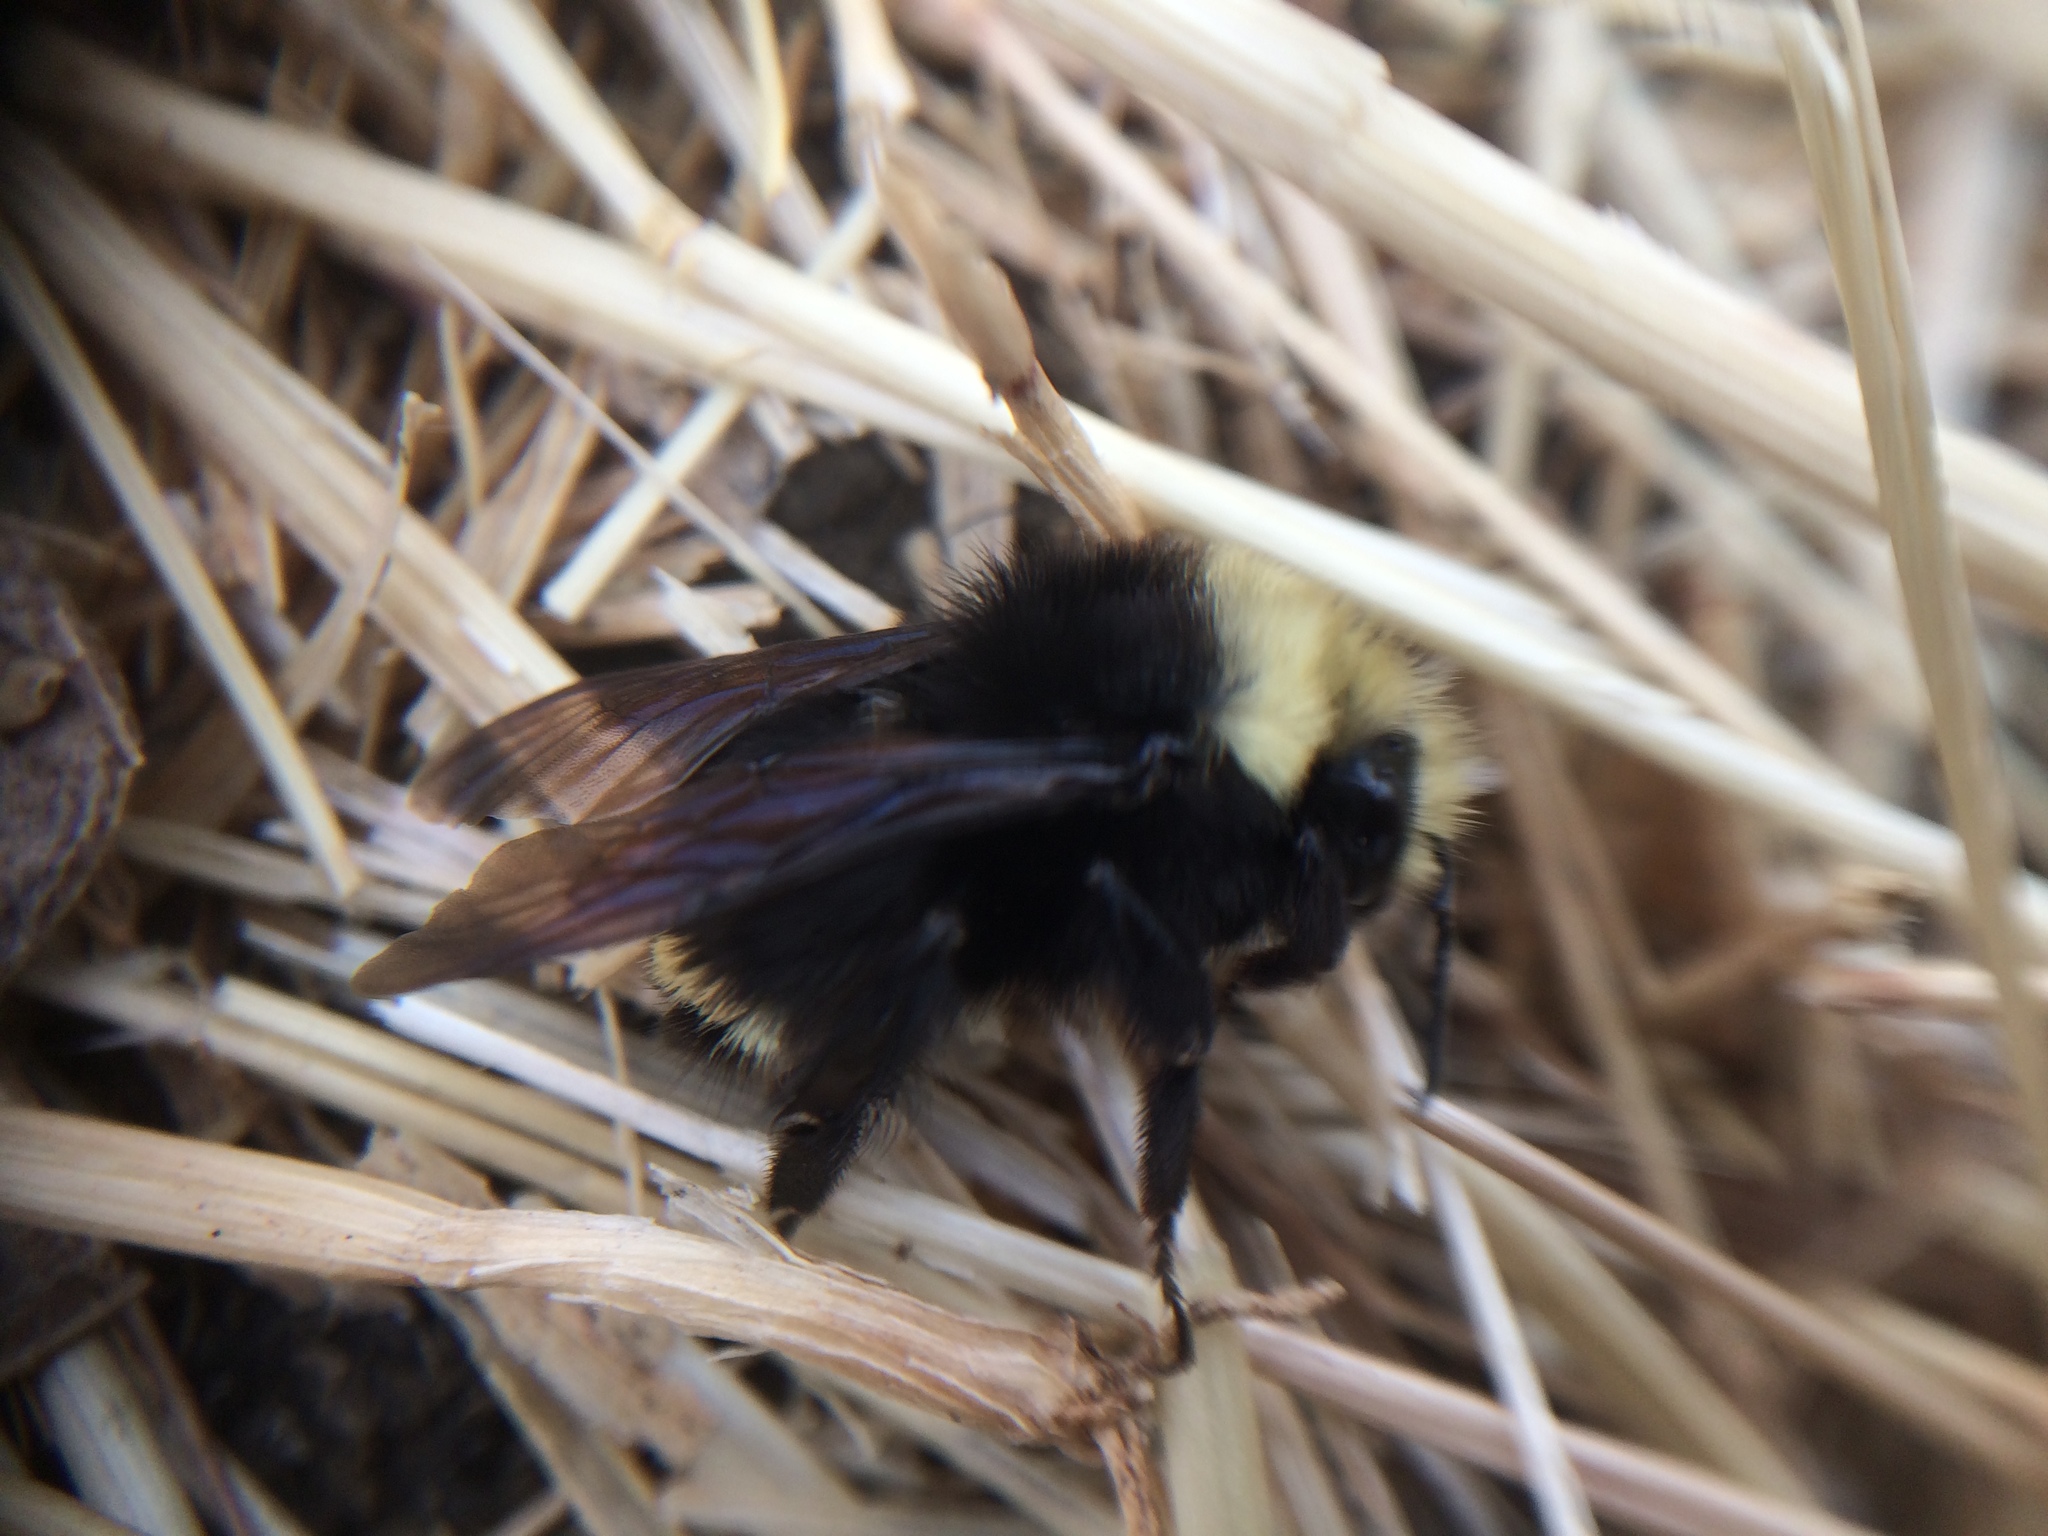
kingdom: Animalia
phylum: Arthropoda
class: Insecta
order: Hymenoptera
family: Apidae
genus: Pyrobombus
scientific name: Pyrobombus
